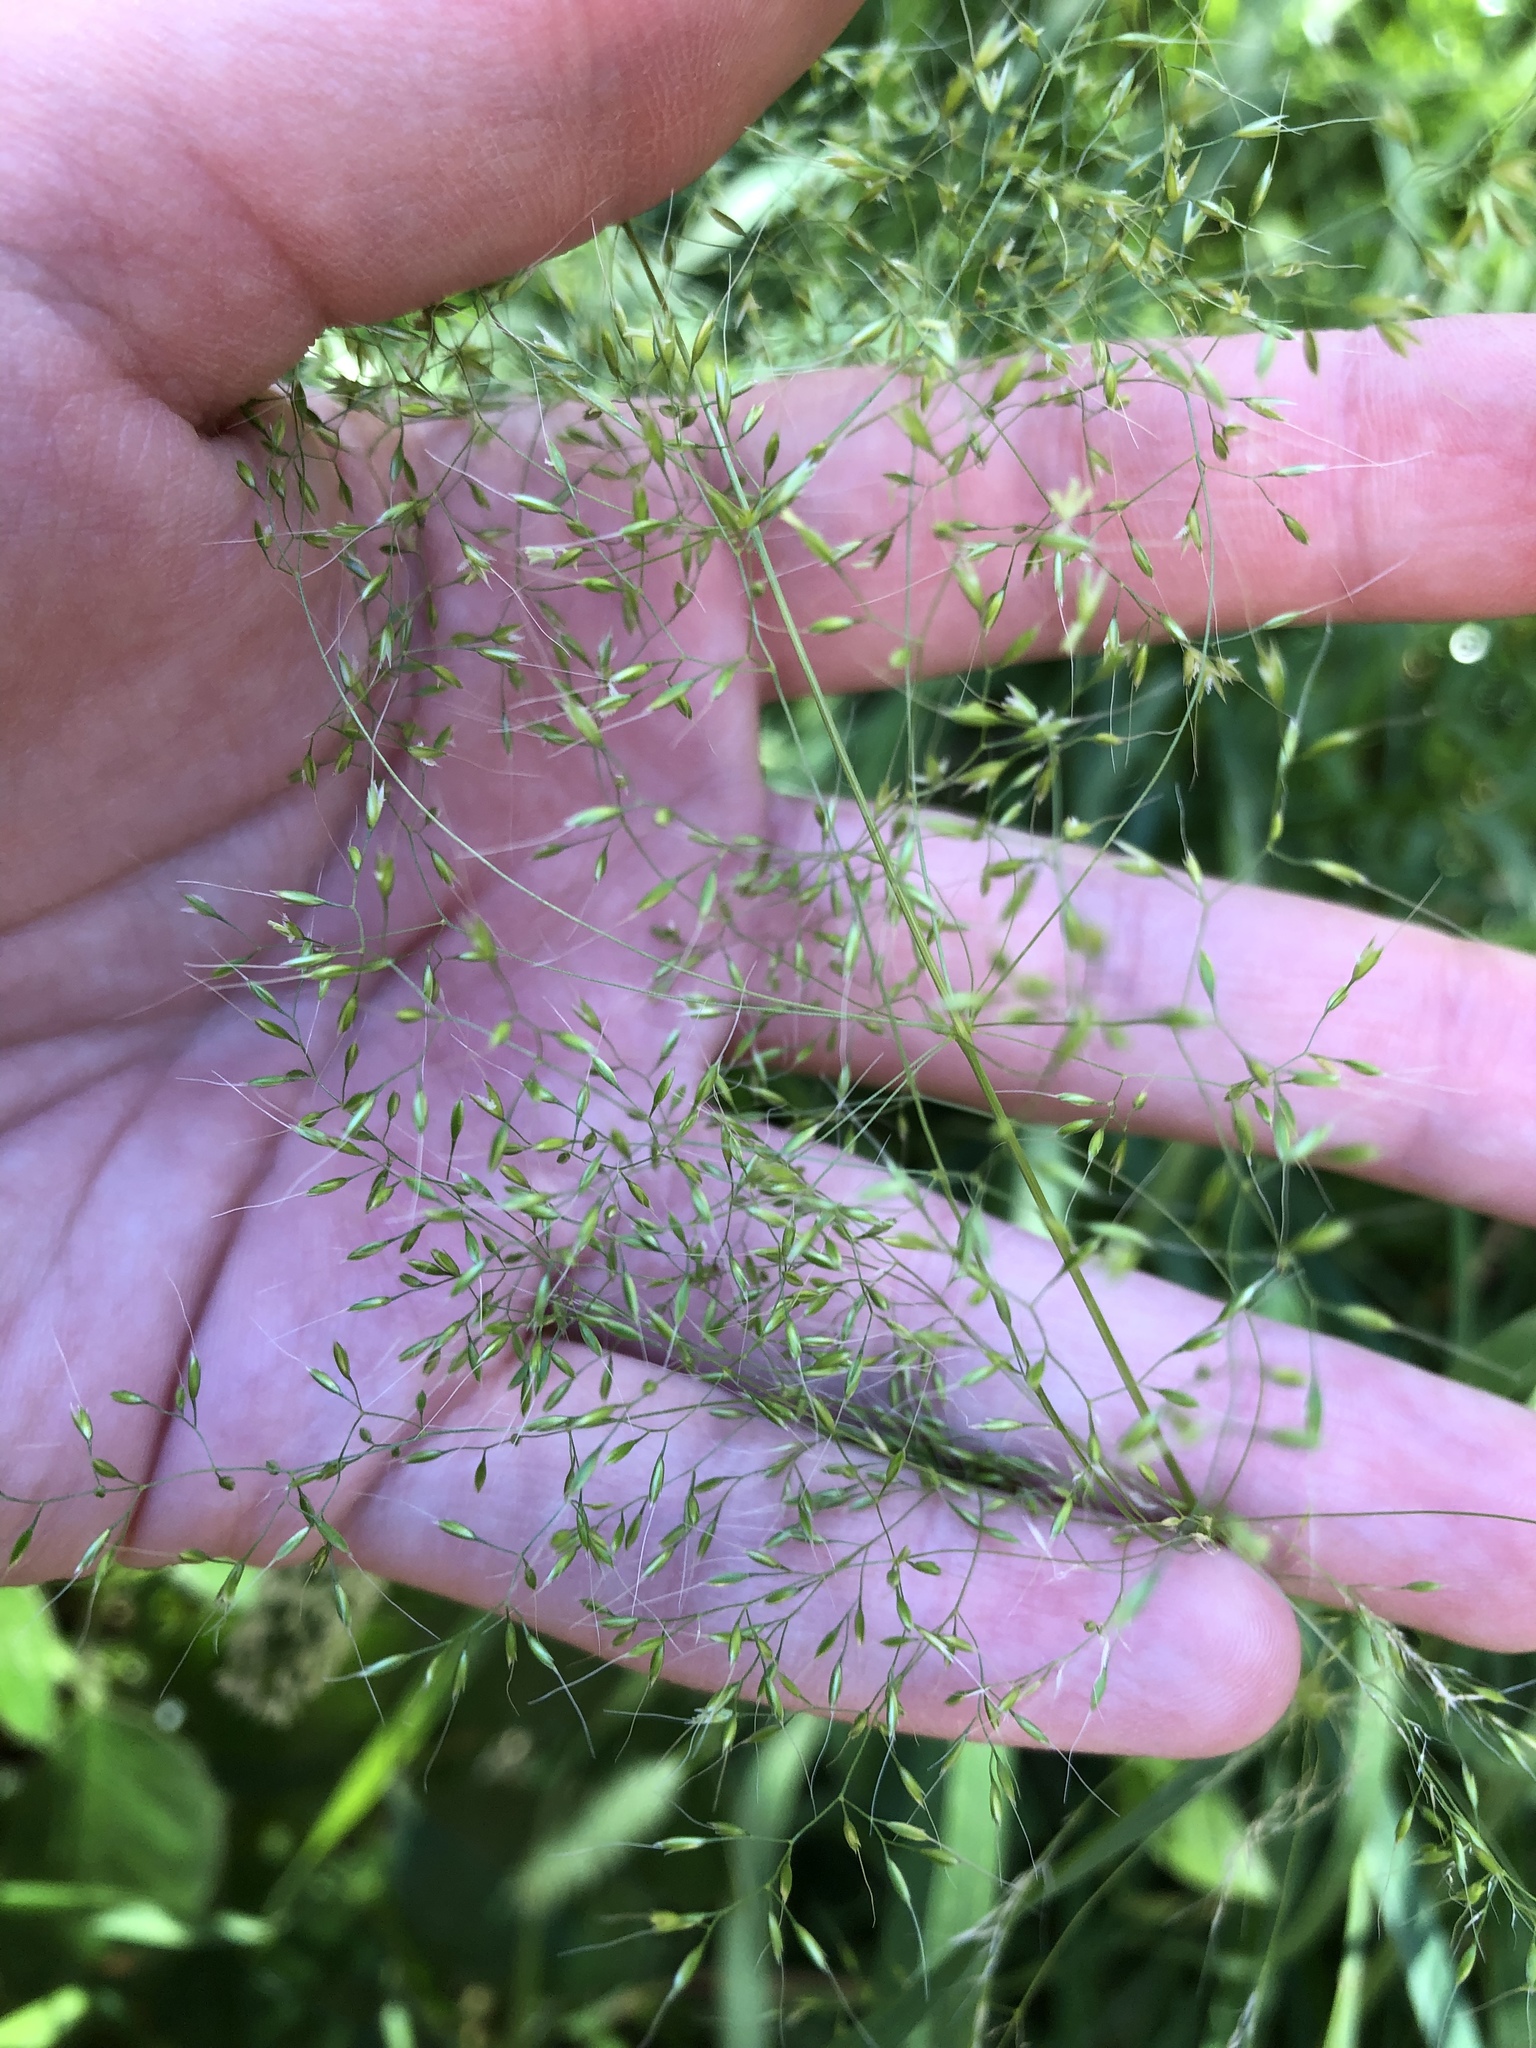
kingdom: Plantae
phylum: Tracheophyta
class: Liliopsida
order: Poales
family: Poaceae
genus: Apera
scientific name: Apera spica-venti
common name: Loose silky-bent
